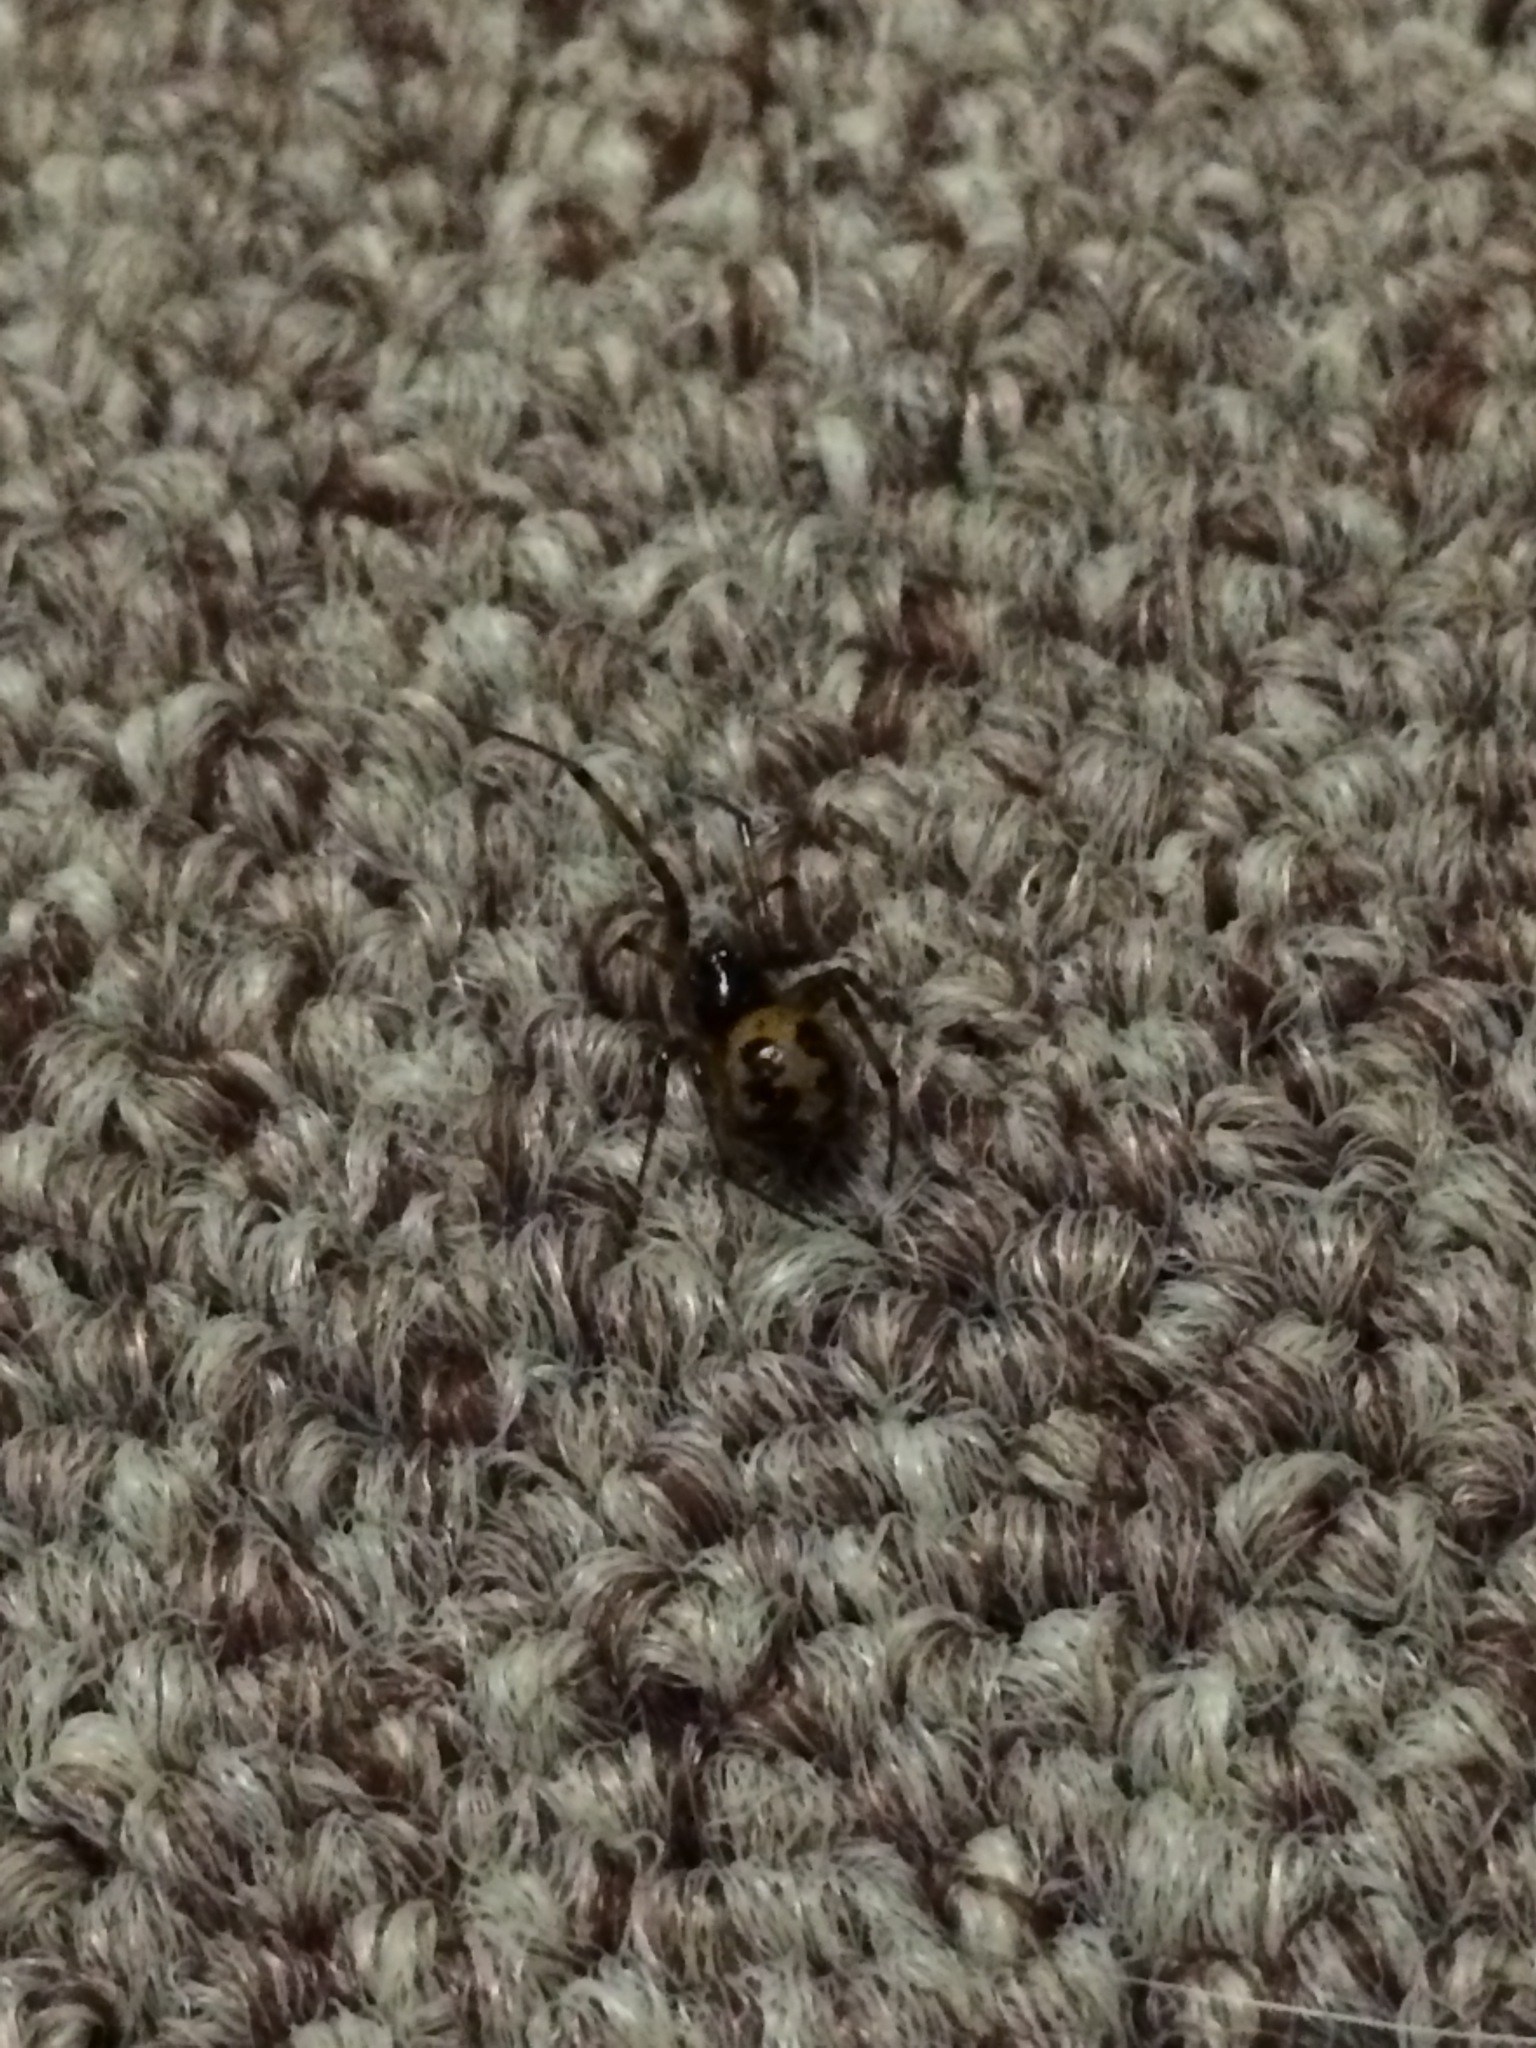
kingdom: Animalia
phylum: Arthropoda
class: Arachnida
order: Araneae
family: Theridiidae
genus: Steatoda
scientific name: Steatoda triangulosa
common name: Triangulate bud spider
